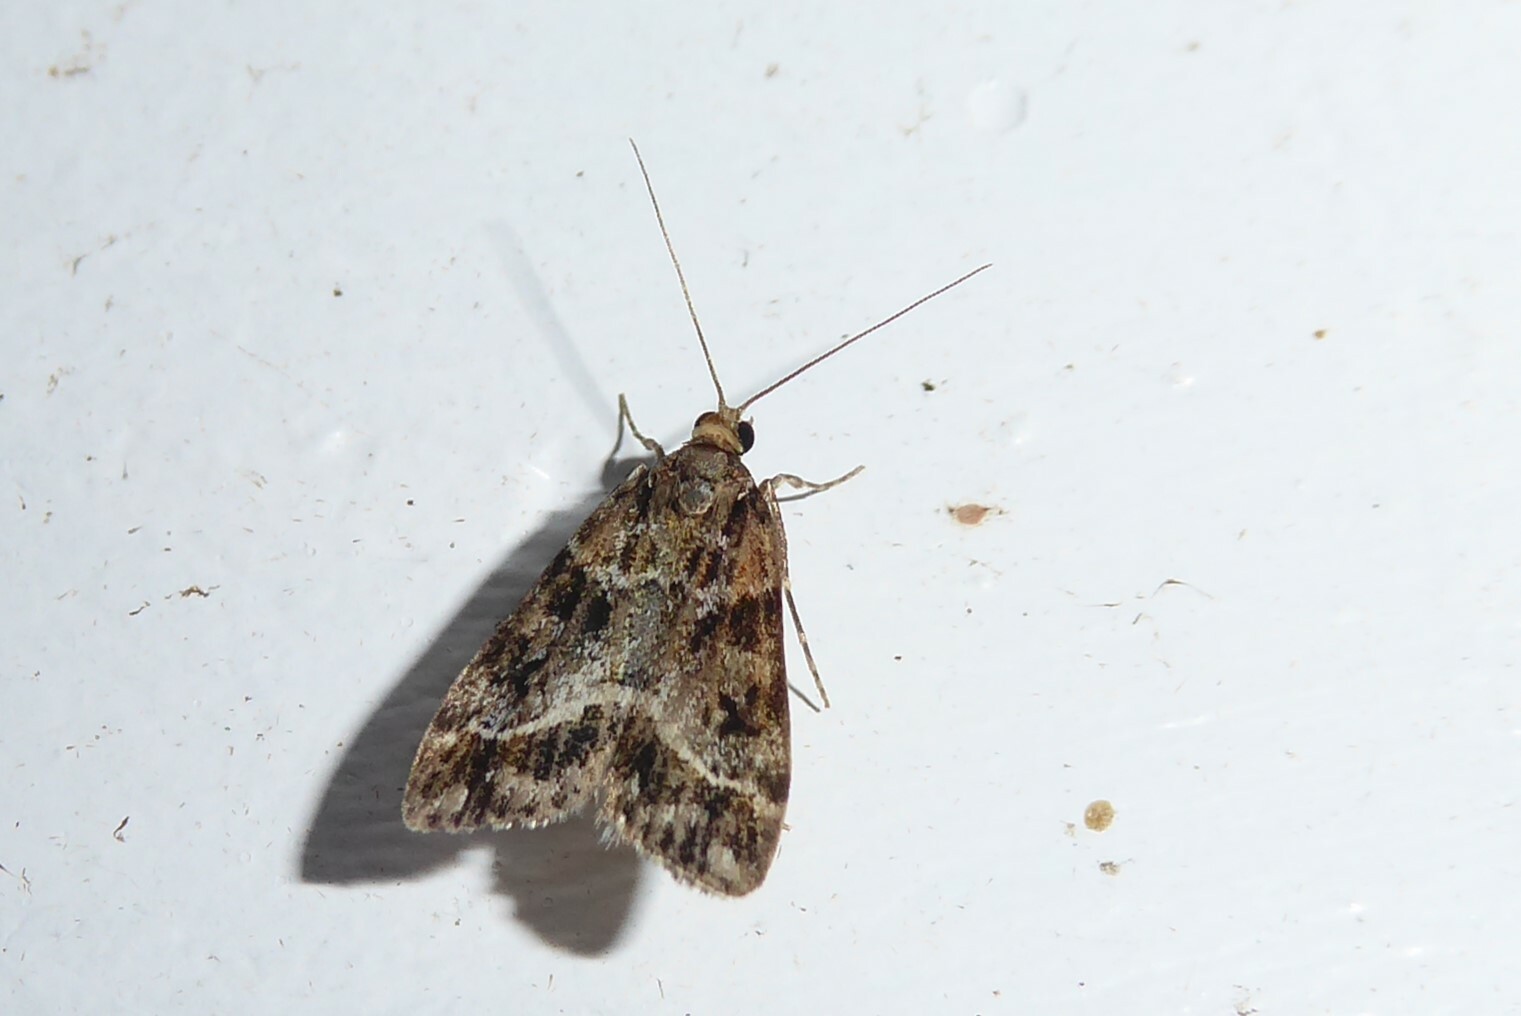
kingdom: Animalia
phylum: Arthropoda
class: Insecta
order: Lepidoptera
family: Crambidae
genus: Eudonia
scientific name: Eudonia legnota
